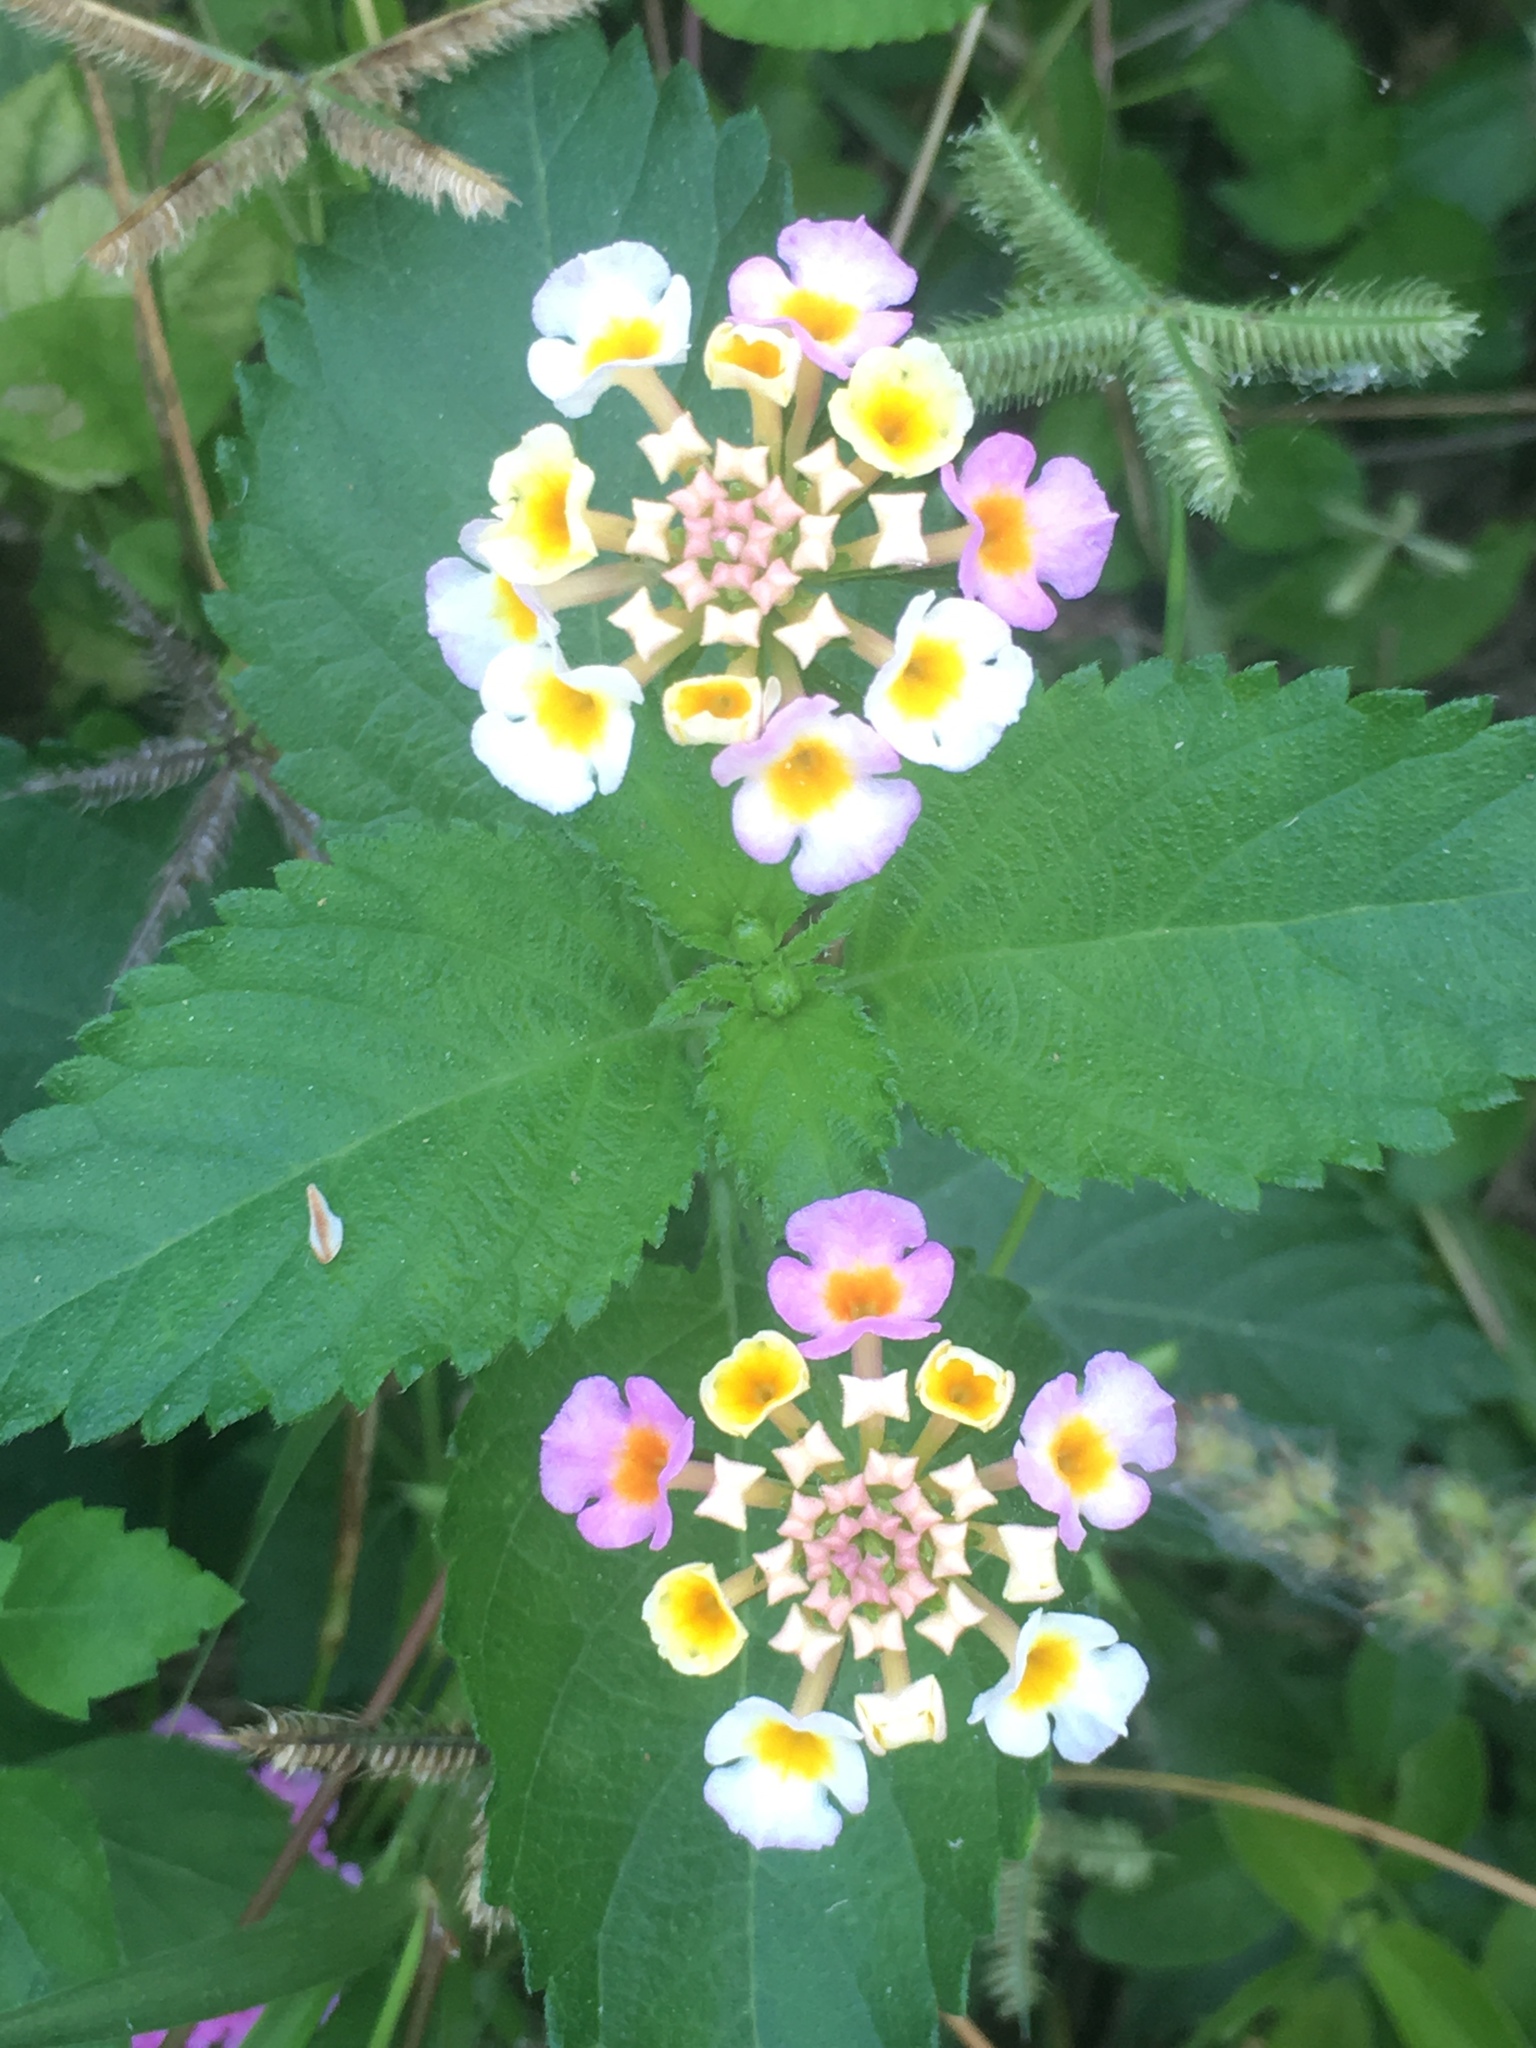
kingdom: Plantae
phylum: Tracheophyta
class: Magnoliopsida
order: Lamiales
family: Verbenaceae
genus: Lantana
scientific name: Lantana camara
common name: Lantana
